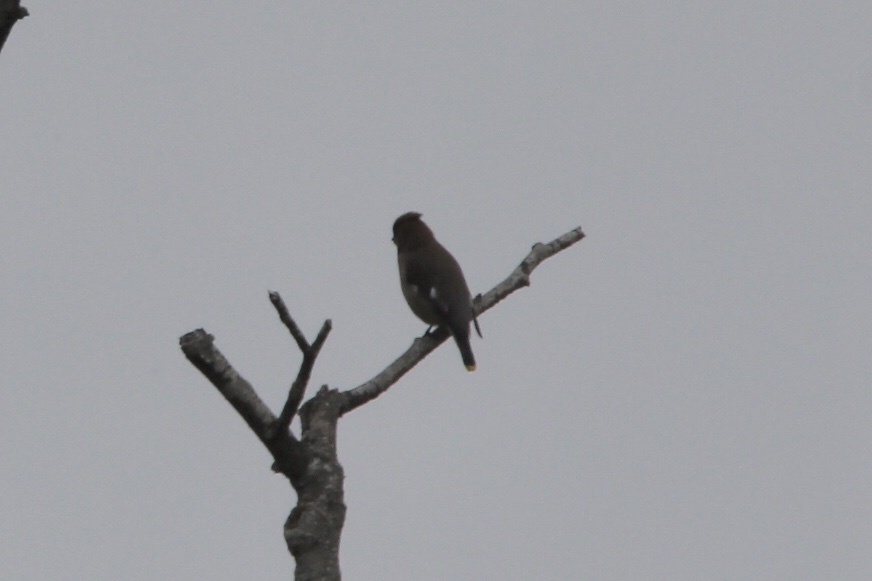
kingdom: Animalia
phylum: Chordata
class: Aves
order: Passeriformes
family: Bombycillidae
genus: Bombycilla
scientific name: Bombycilla cedrorum
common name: Cedar waxwing
